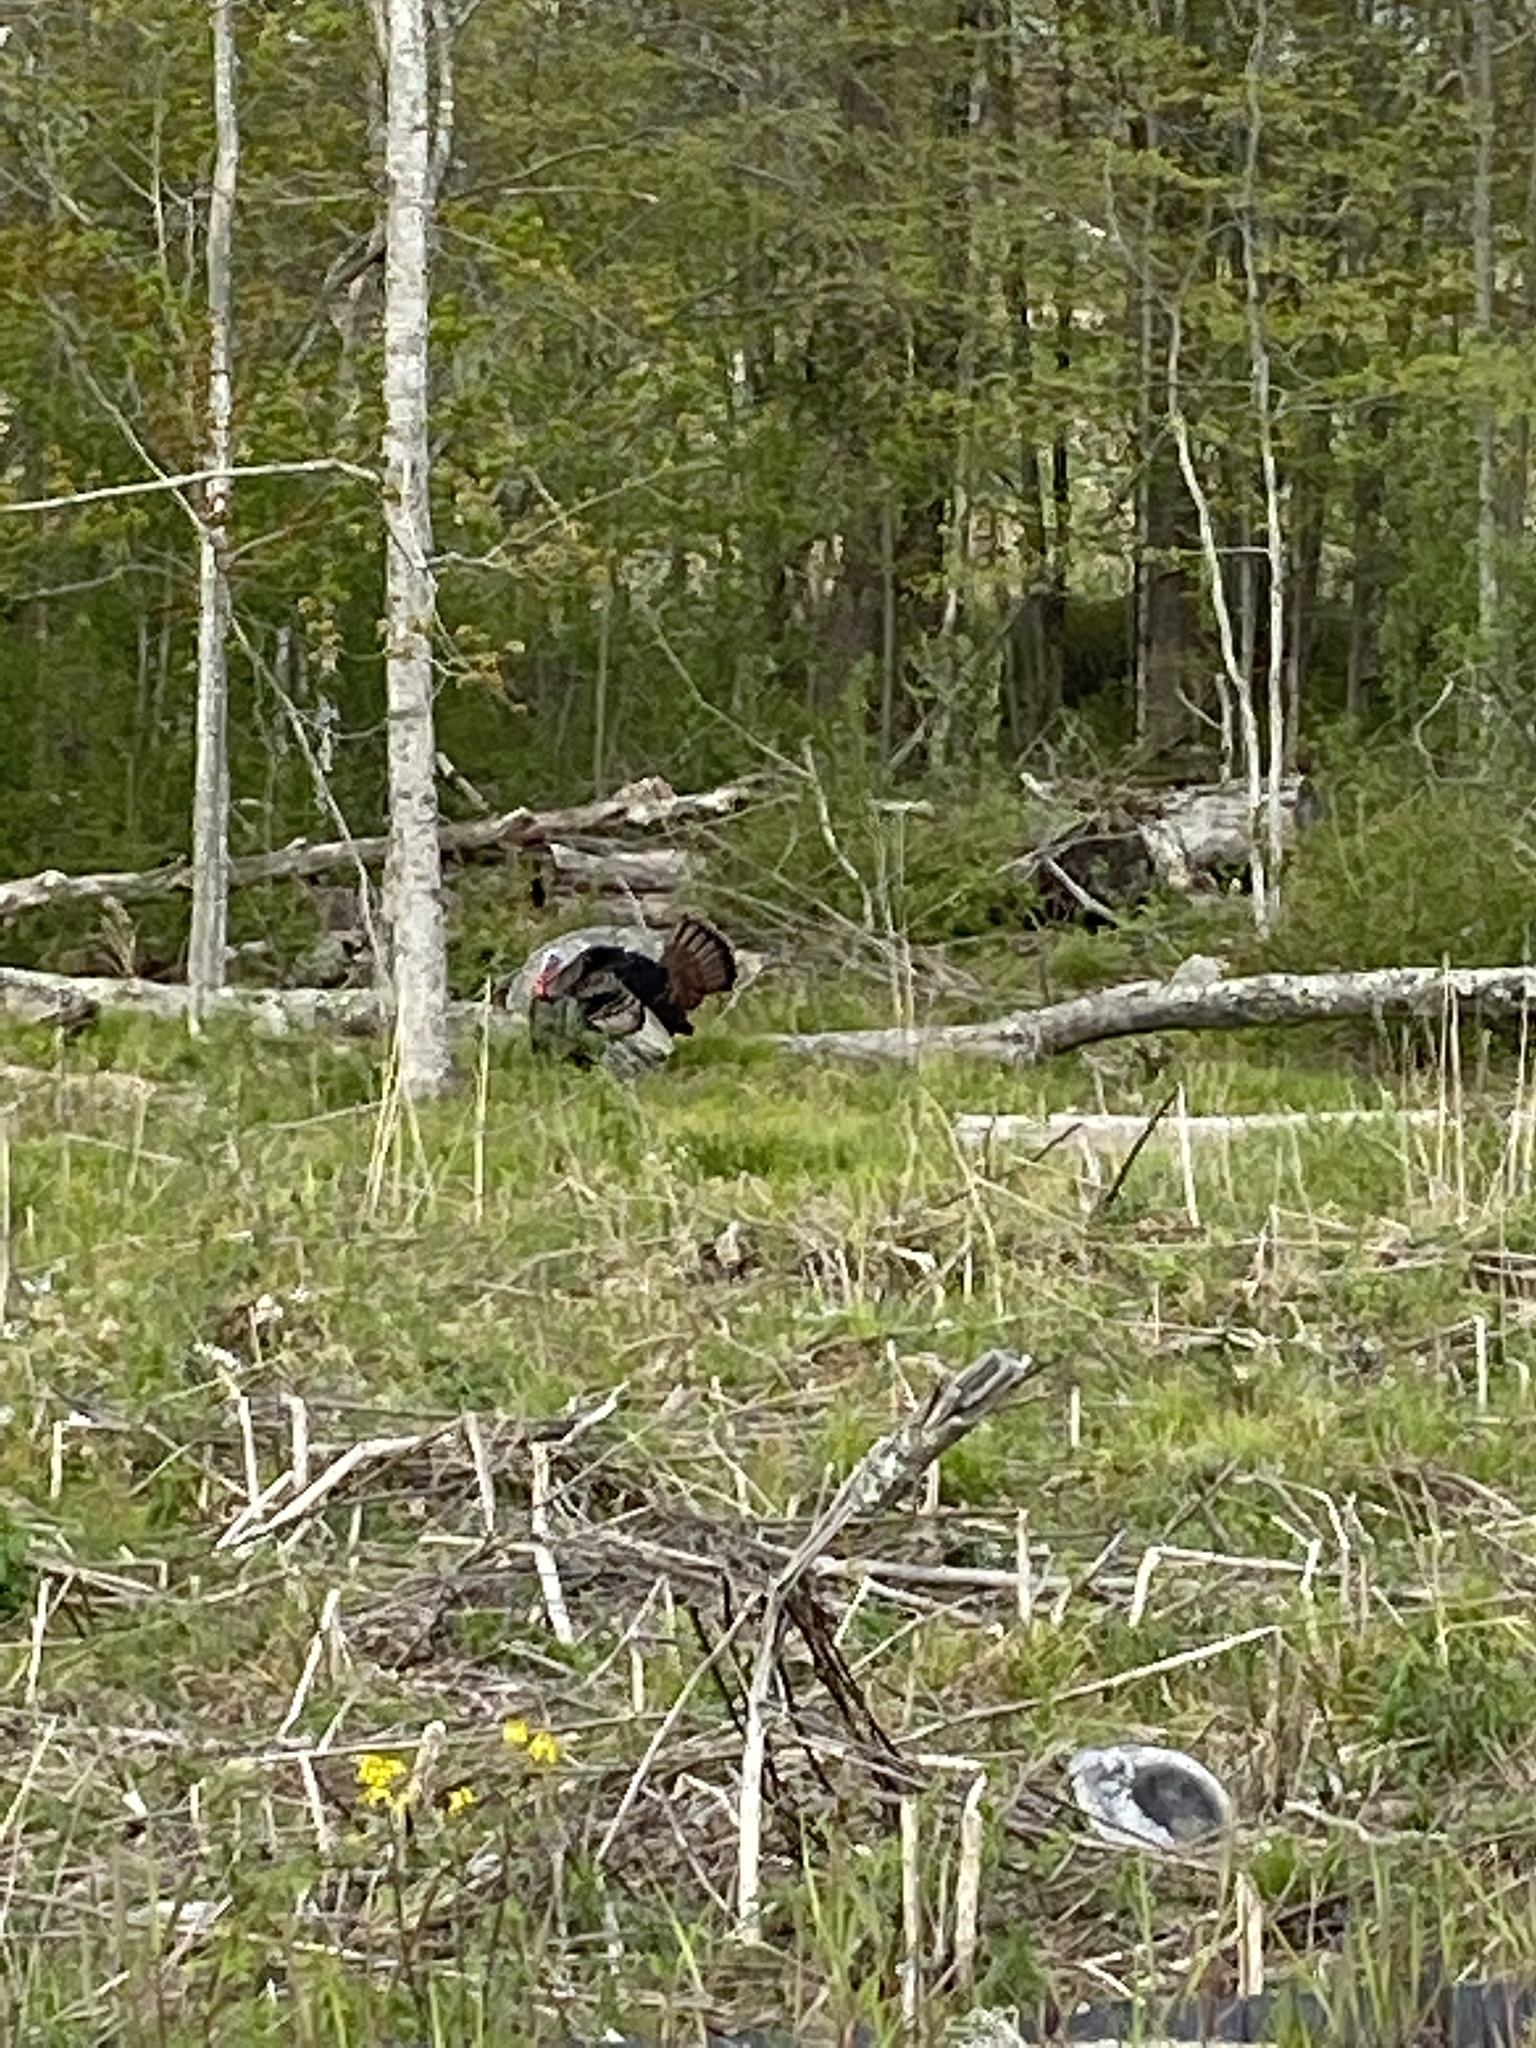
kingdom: Animalia
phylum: Chordata
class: Aves
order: Galliformes
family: Phasianidae
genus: Meleagris
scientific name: Meleagris gallopavo
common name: Wild turkey
